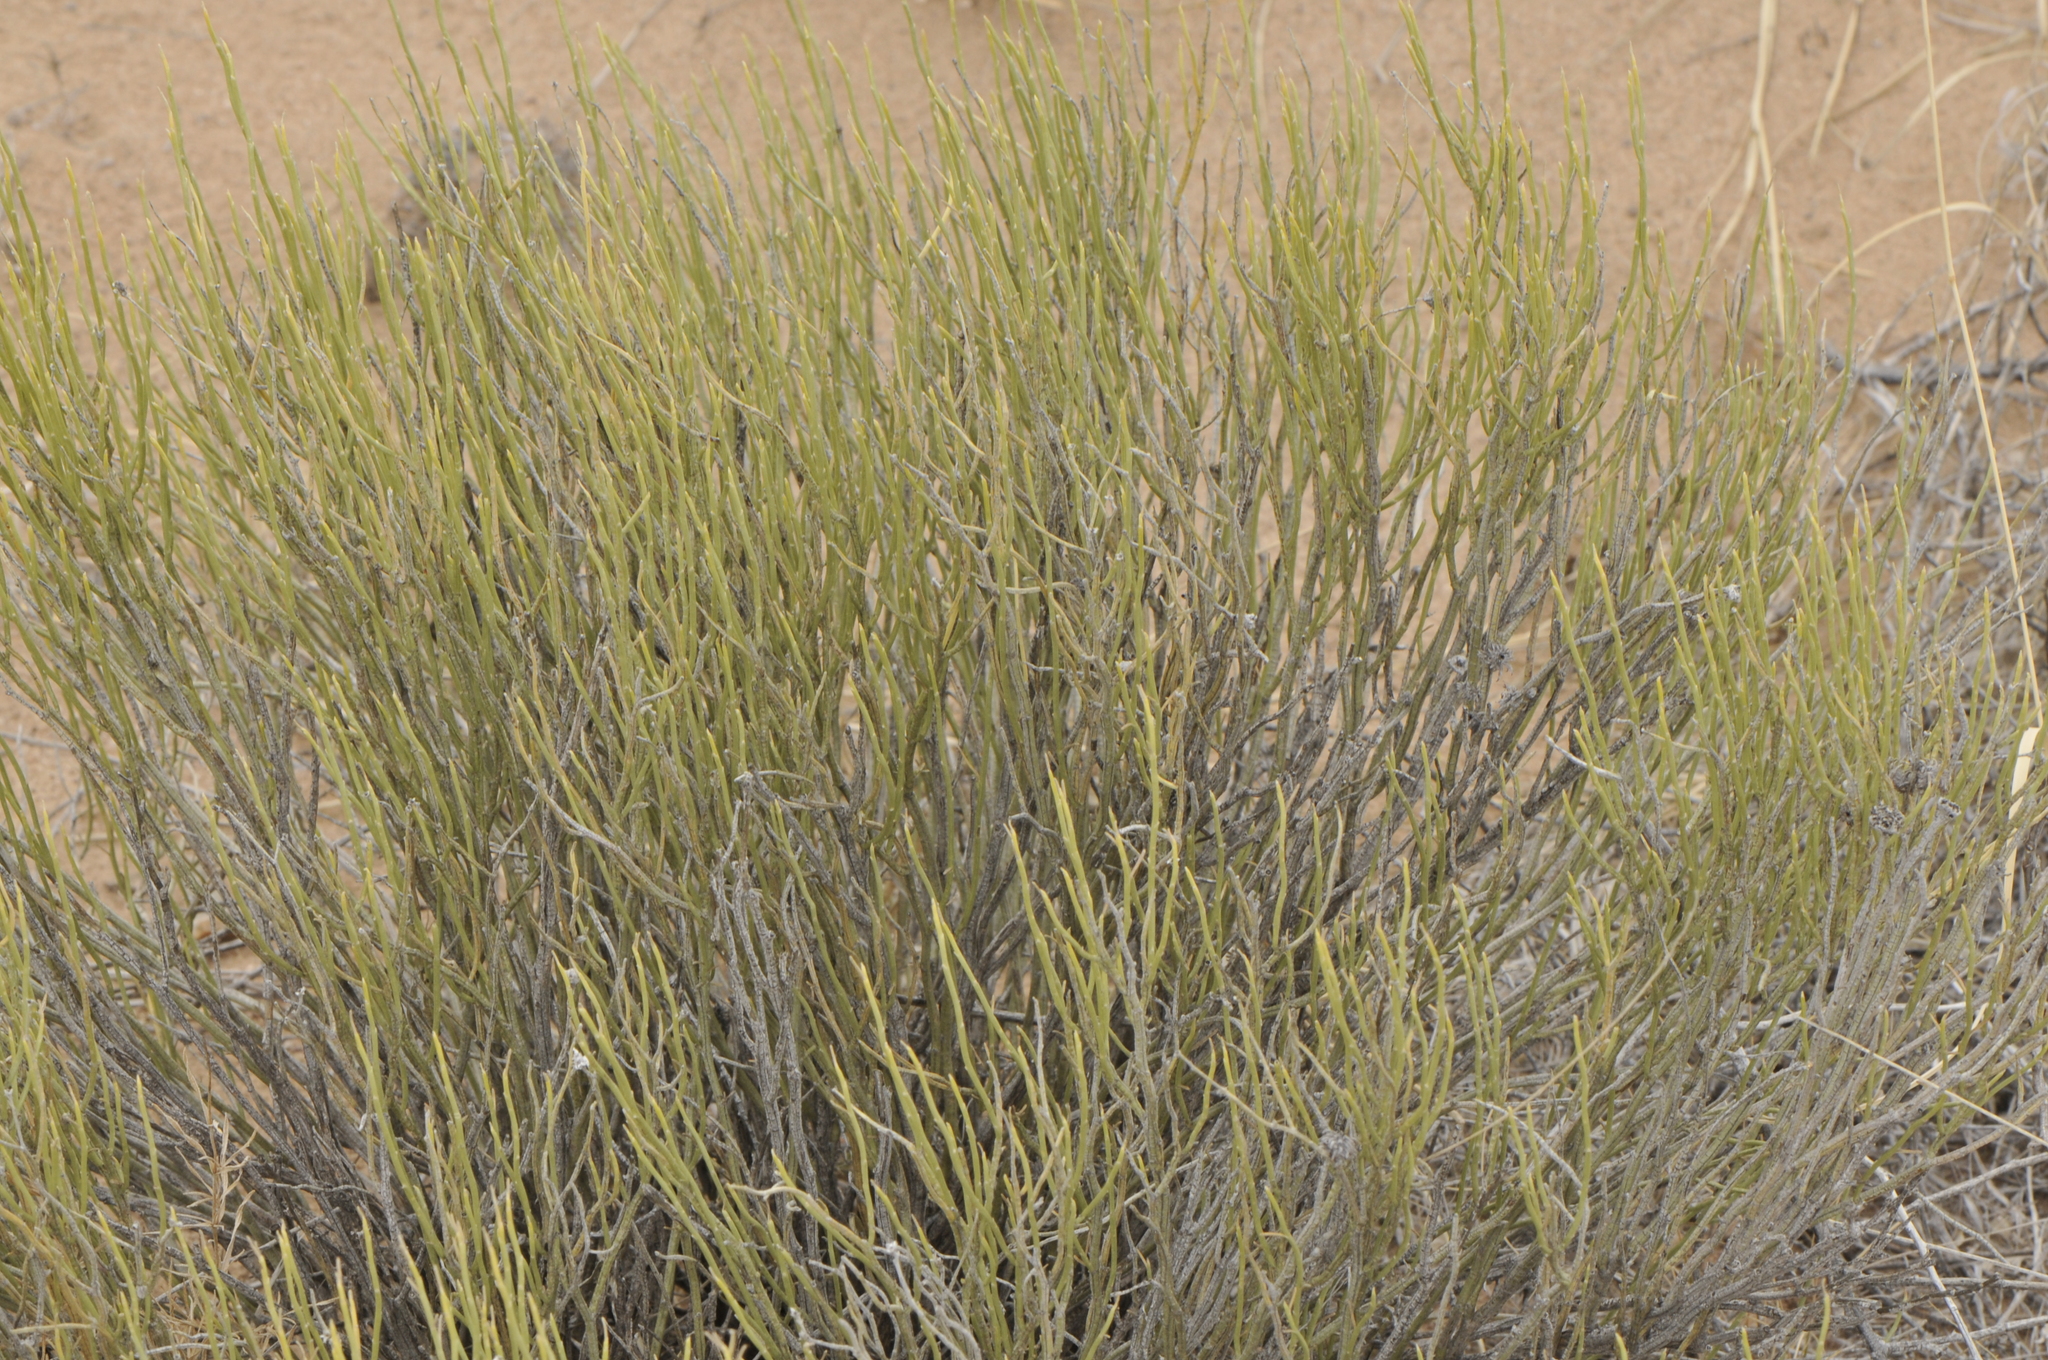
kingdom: Plantae
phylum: Tracheophyta
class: Magnoliopsida
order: Asterales
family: Asteraceae
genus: Ericameria
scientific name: Ericameria nauseosa
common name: Rubber rabbitbrush
